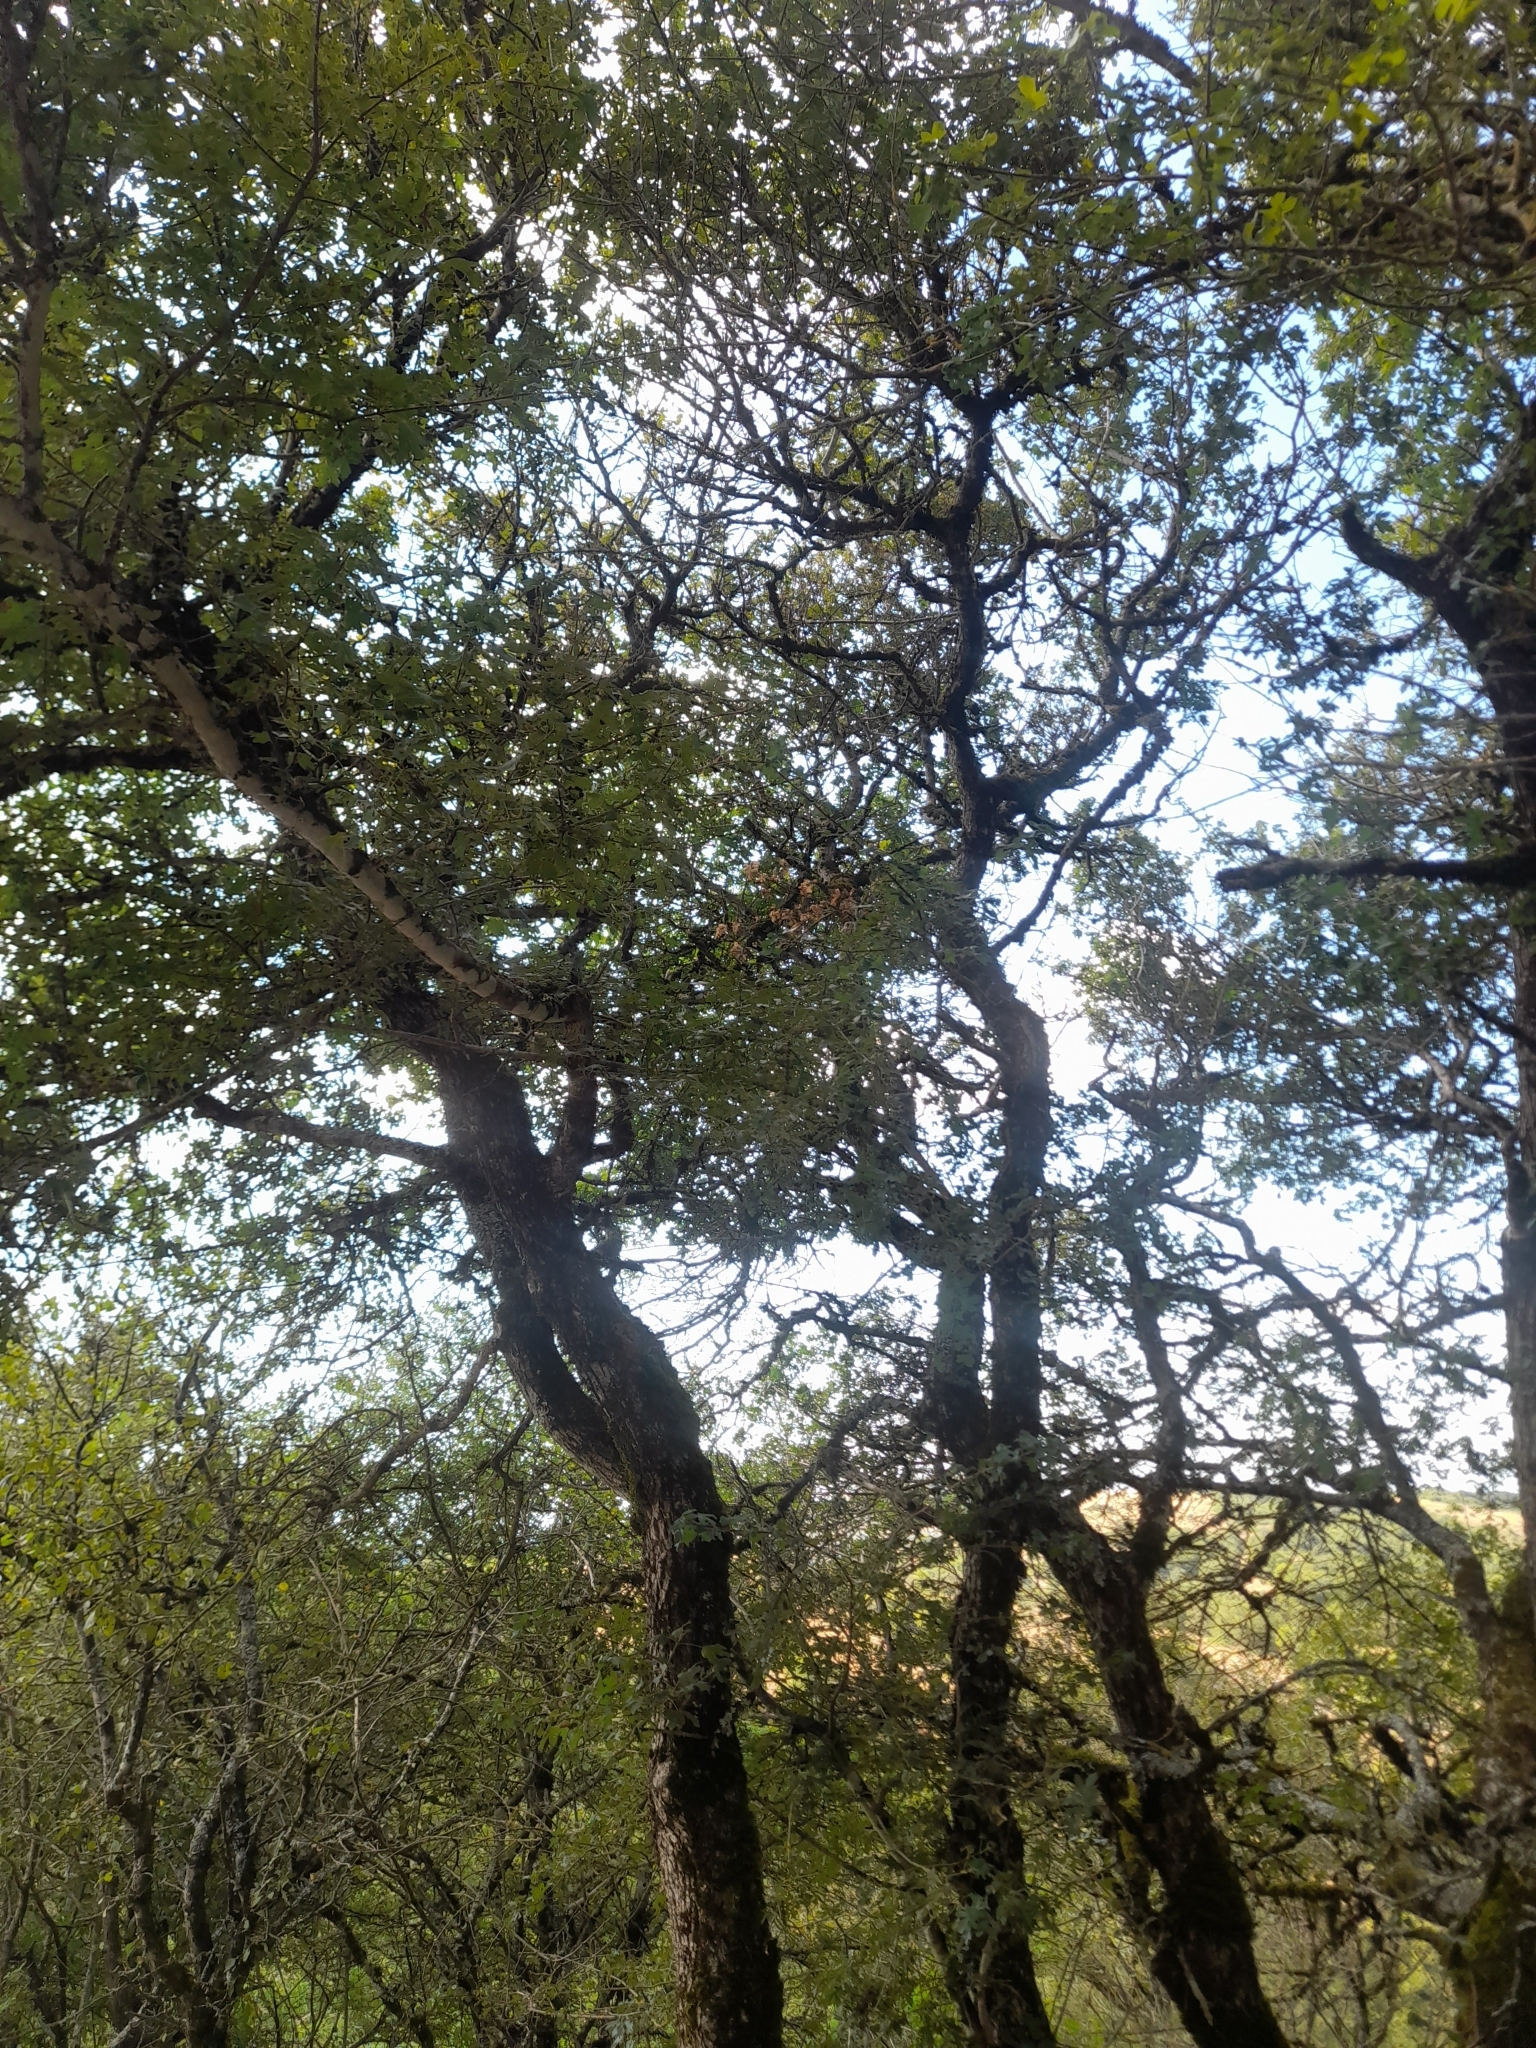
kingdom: Plantae
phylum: Tracheophyta
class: Magnoliopsida
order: Sapindales
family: Sapindaceae
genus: Acer
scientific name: Acer campestre
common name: Field maple
